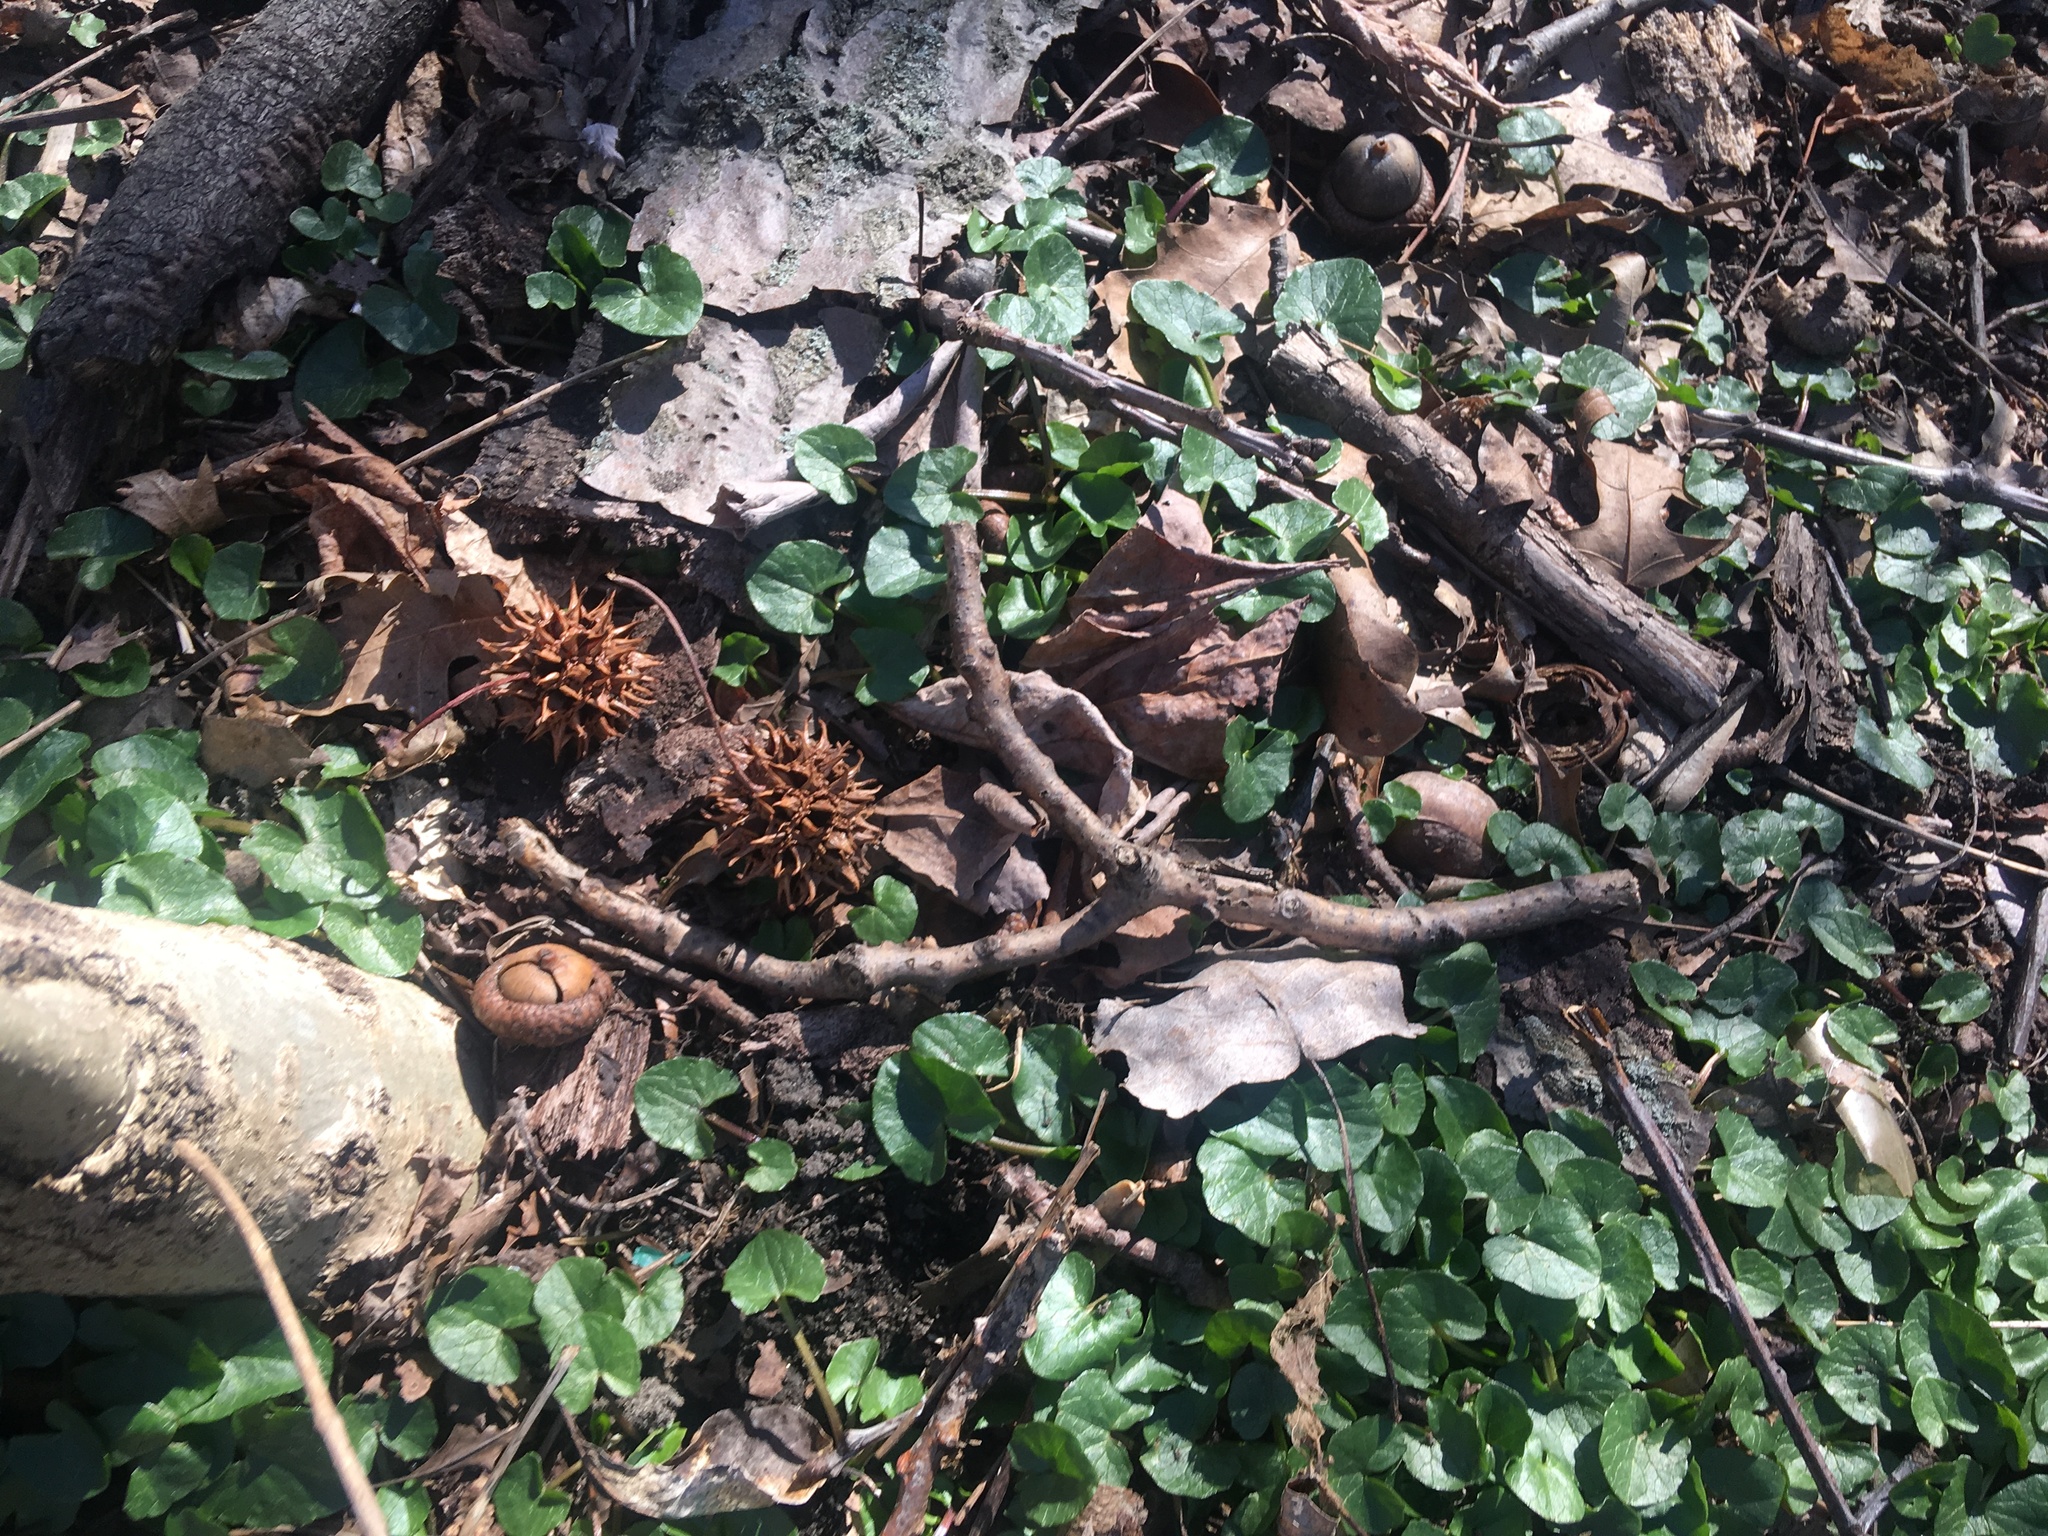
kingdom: Plantae
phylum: Tracheophyta
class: Magnoliopsida
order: Ranunculales
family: Ranunculaceae
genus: Ficaria
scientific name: Ficaria verna
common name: Lesser celandine
